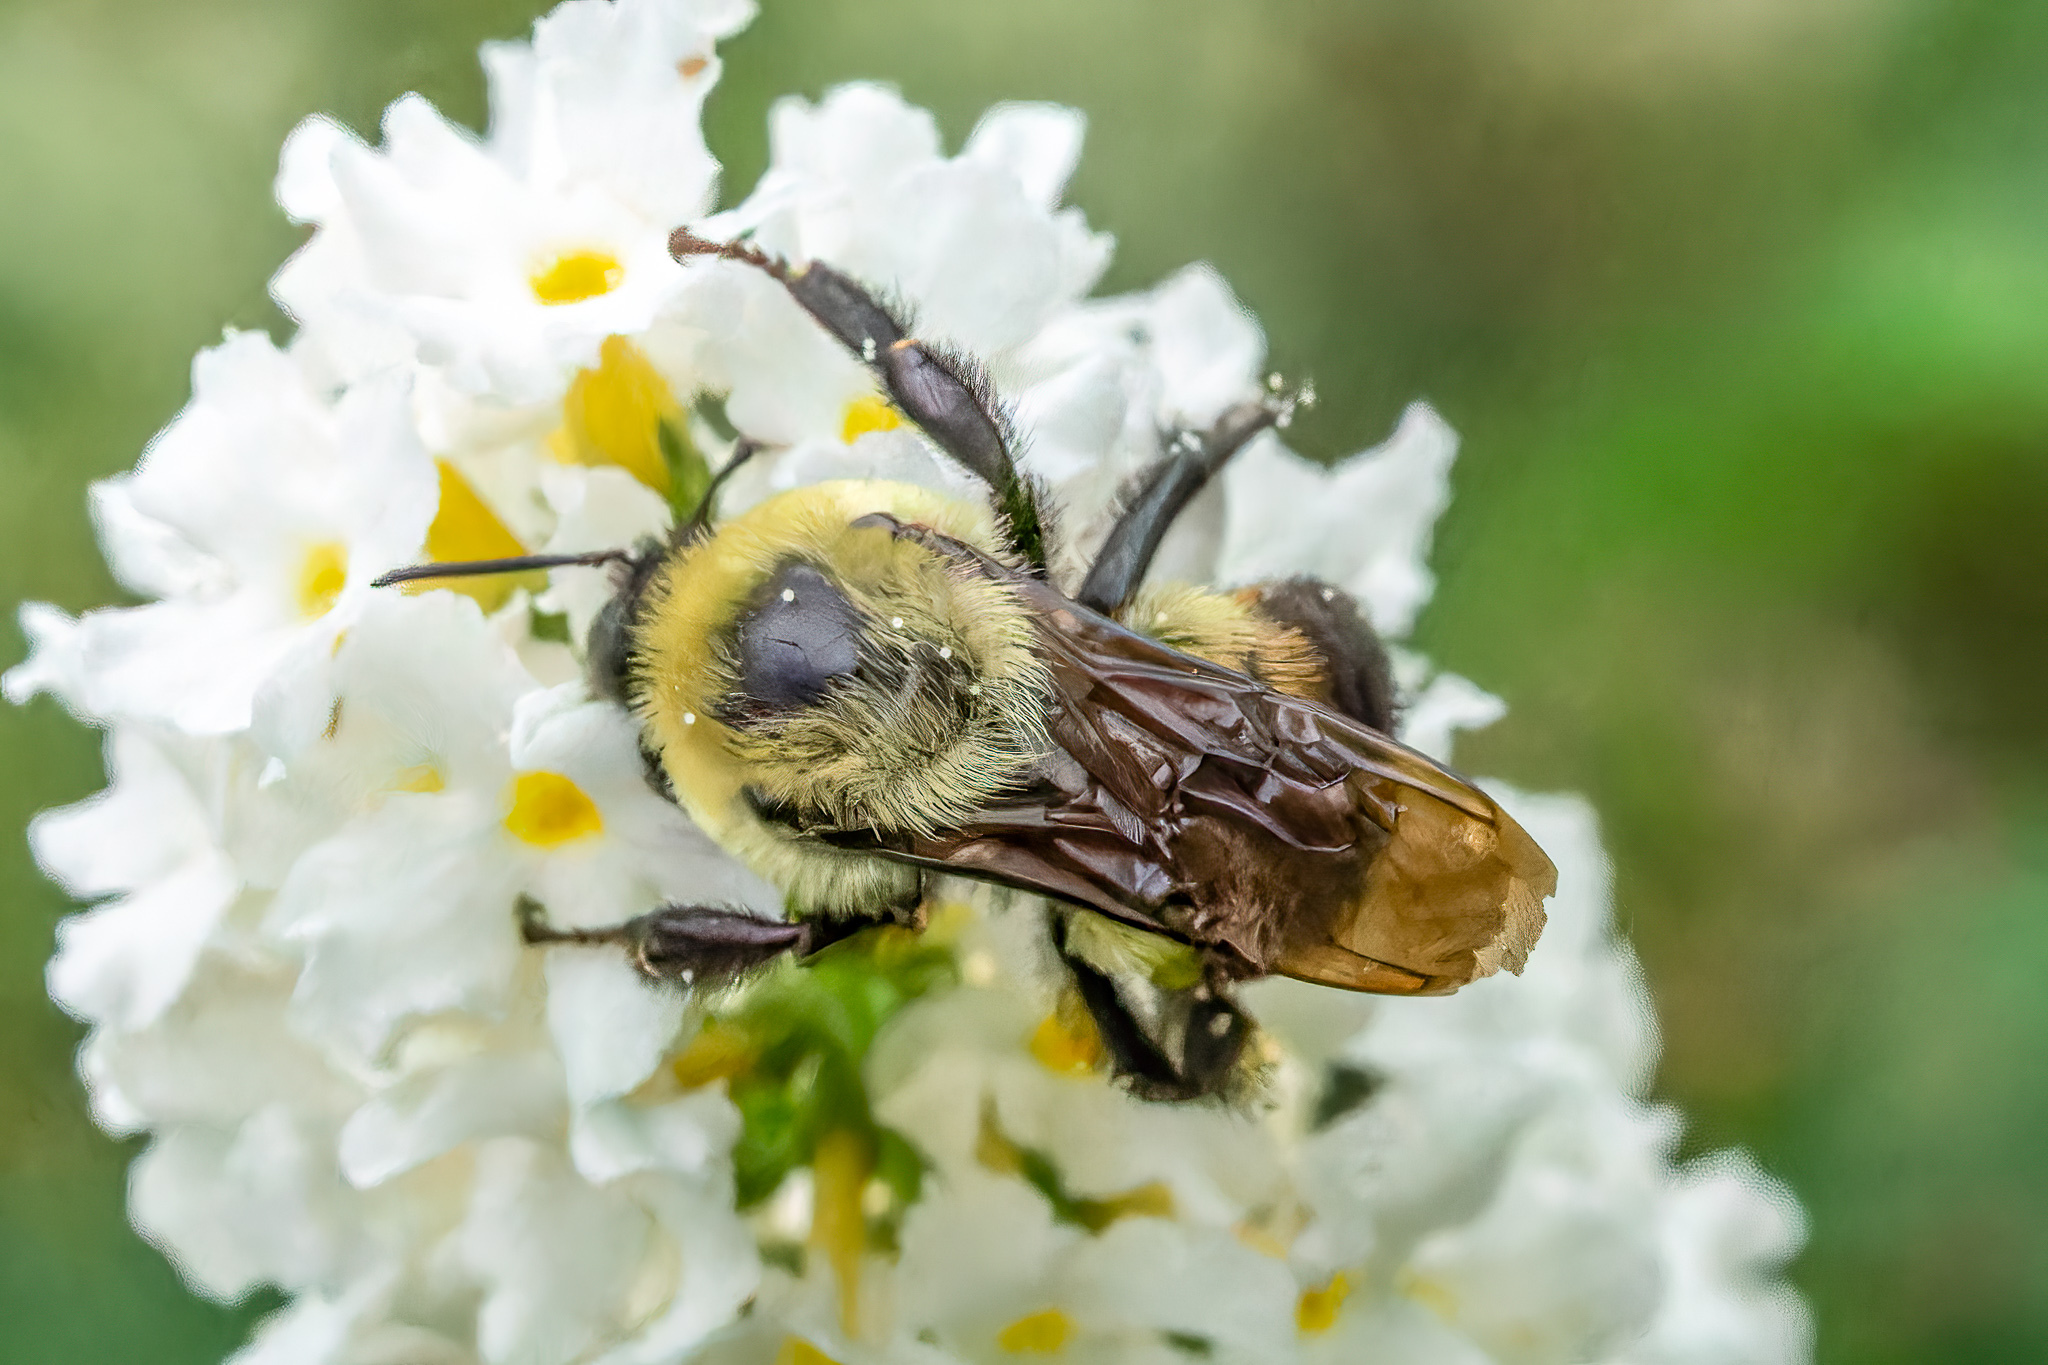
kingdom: Animalia
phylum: Arthropoda
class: Insecta
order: Hymenoptera
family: Apidae
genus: Bombus
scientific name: Bombus griseocollis
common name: Brown-belted bumble bee
